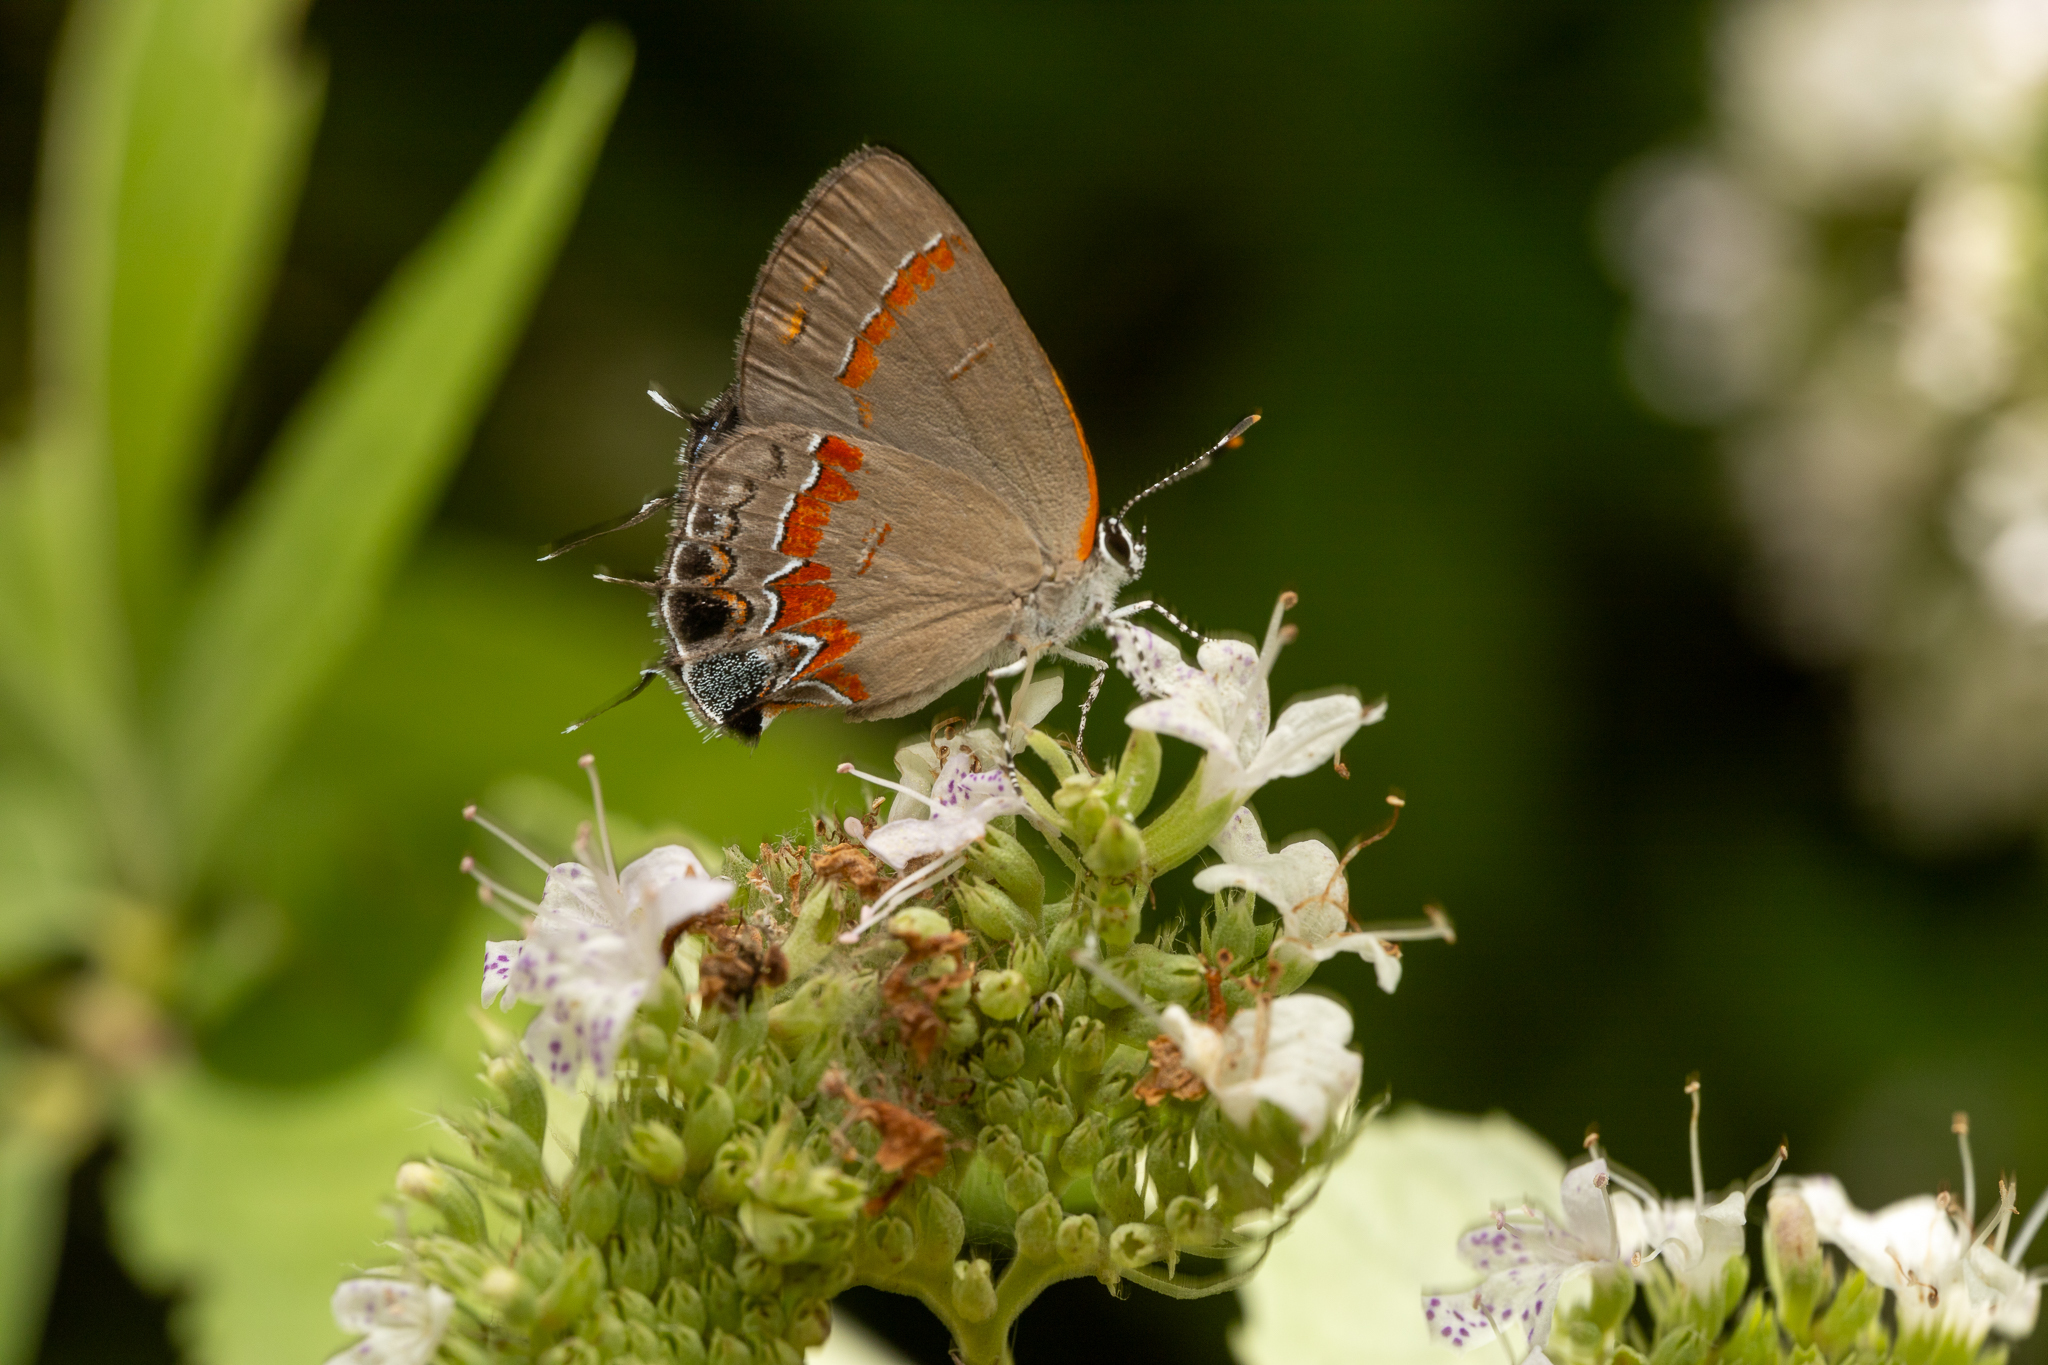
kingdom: Animalia
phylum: Arthropoda
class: Insecta
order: Lepidoptera
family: Lycaenidae
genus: Calycopis
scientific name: Calycopis cecrops
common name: Red-banded hairstreak
